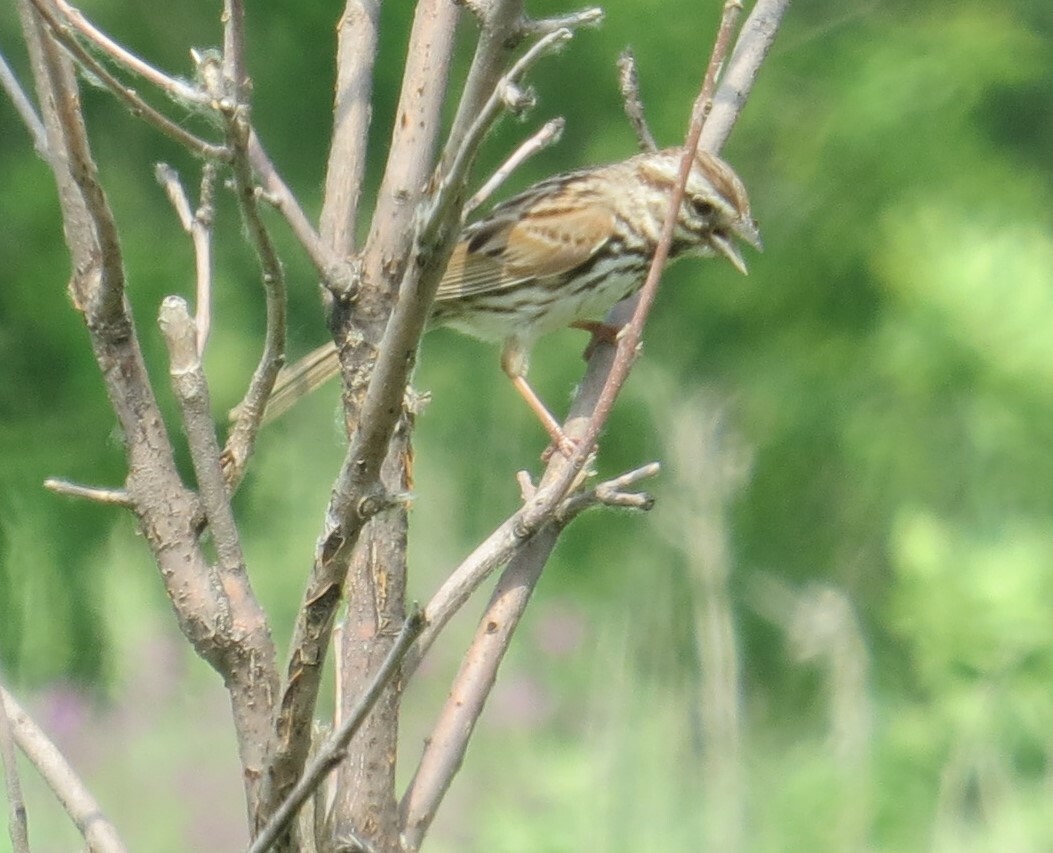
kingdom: Animalia
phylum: Chordata
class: Aves
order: Passeriformes
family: Passerellidae
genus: Melospiza
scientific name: Melospiza melodia
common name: Song sparrow
